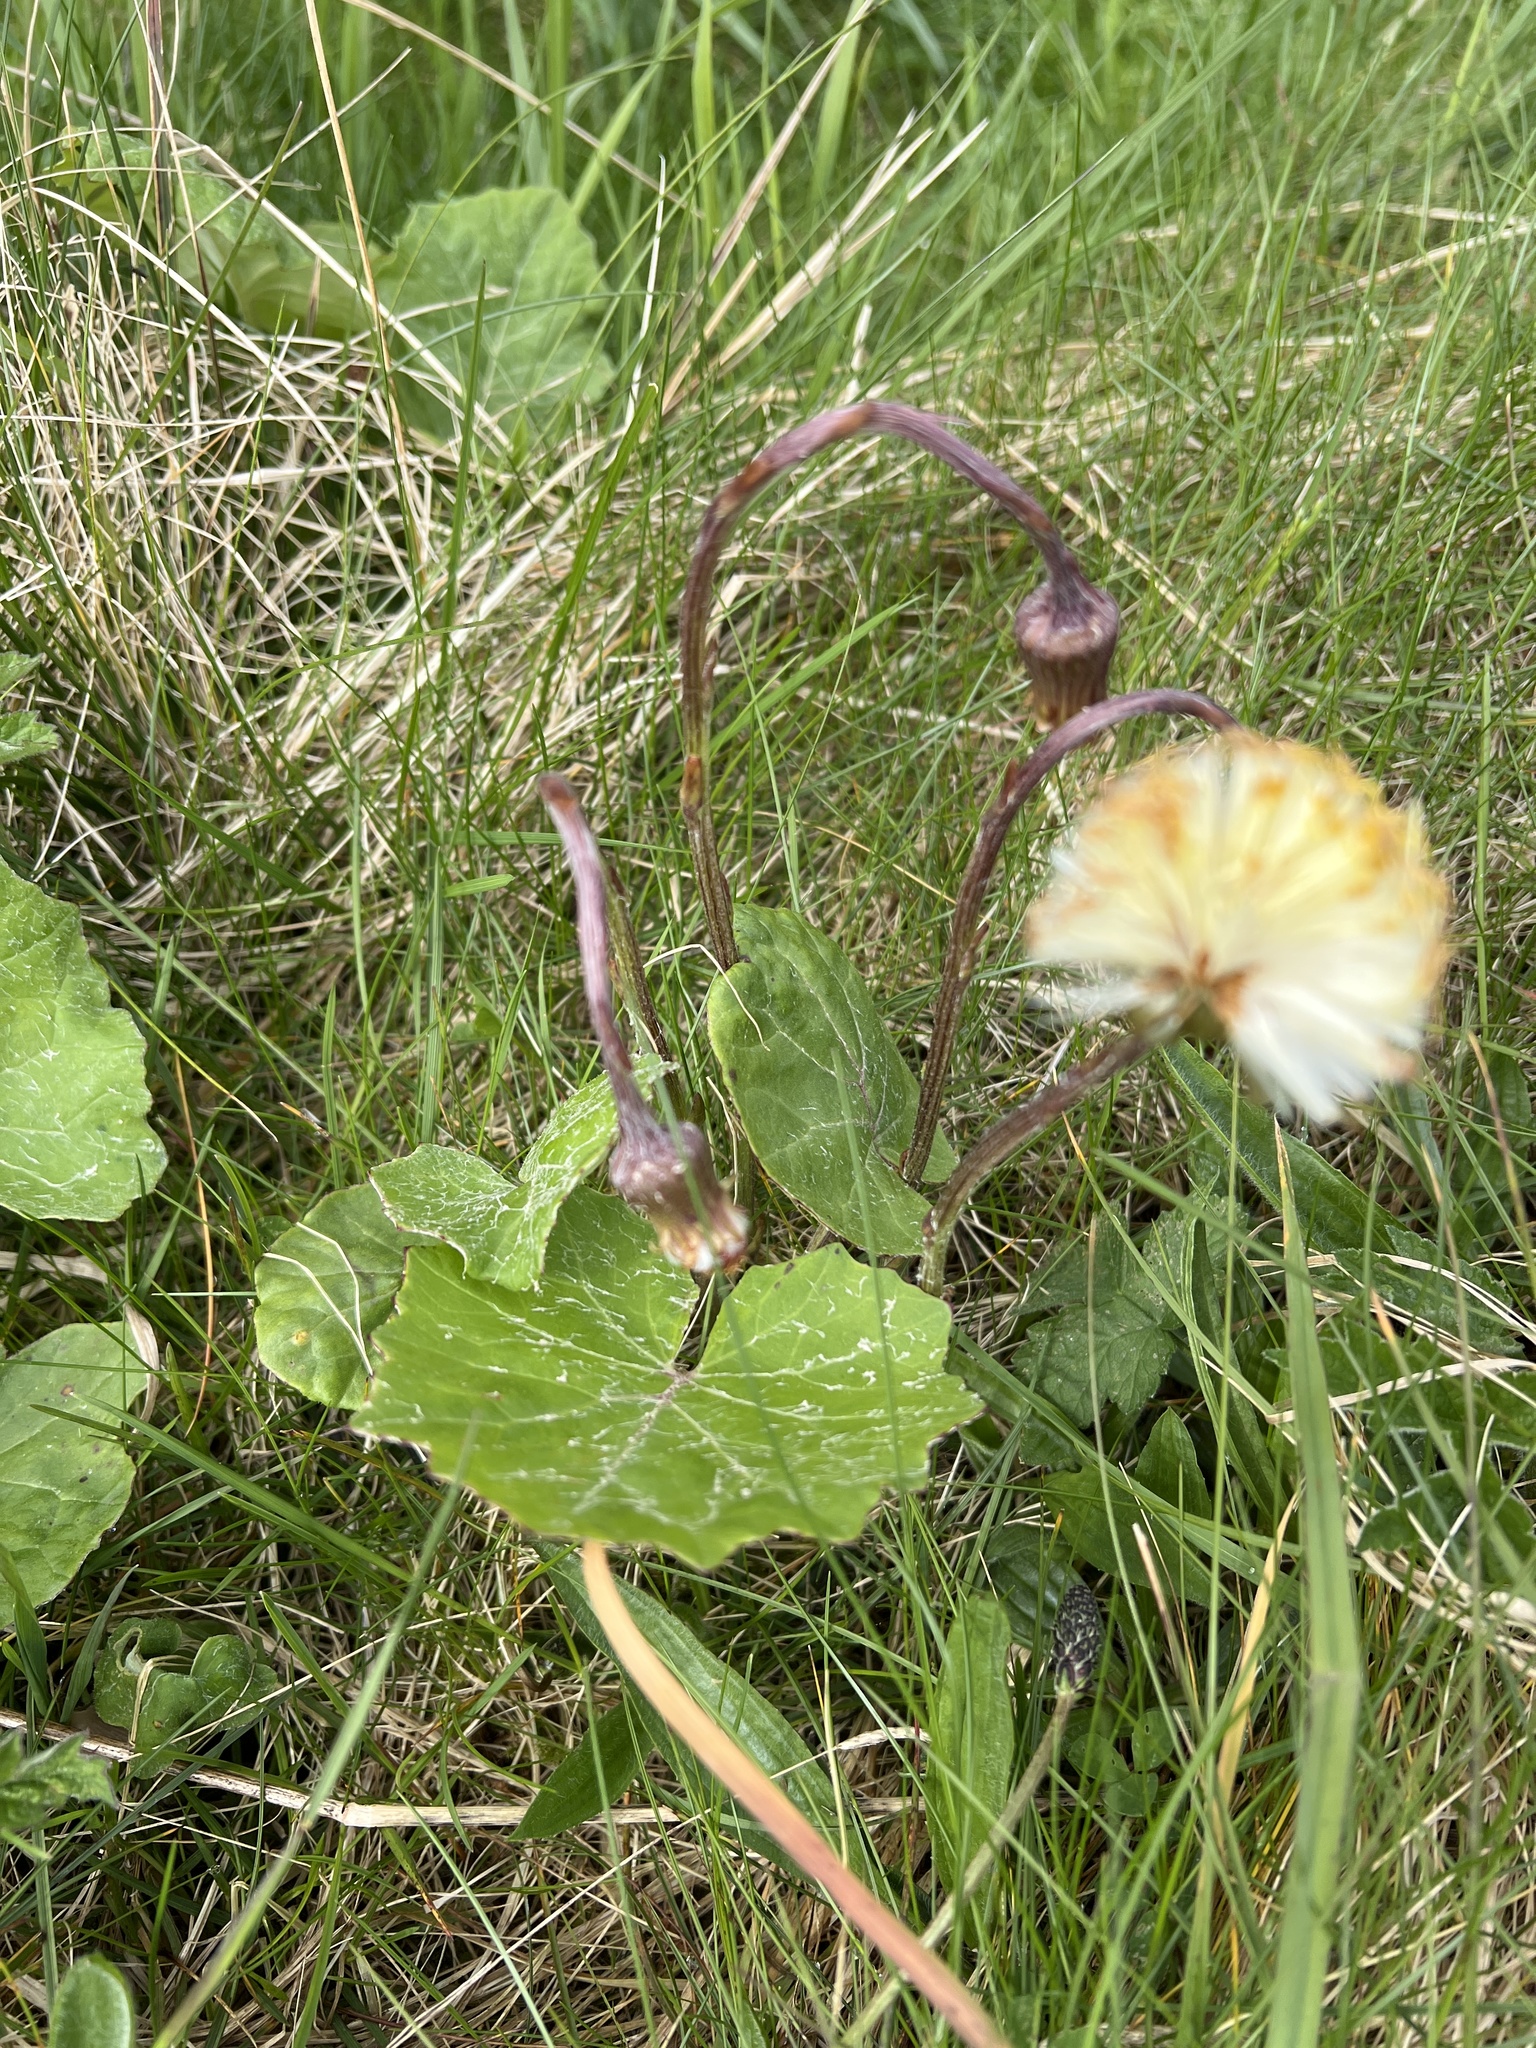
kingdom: Plantae
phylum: Tracheophyta
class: Magnoliopsida
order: Asterales
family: Asteraceae
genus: Tussilago
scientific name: Tussilago farfara
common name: Coltsfoot
